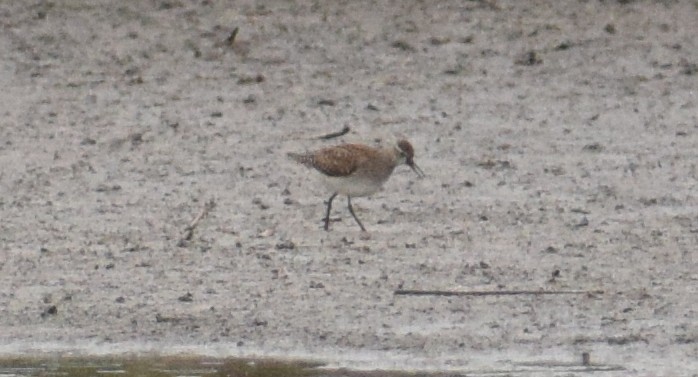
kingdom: Animalia
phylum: Chordata
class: Aves
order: Charadriiformes
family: Scolopacidae
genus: Tringa
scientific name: Tringa glareola
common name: Wood sandpiper
